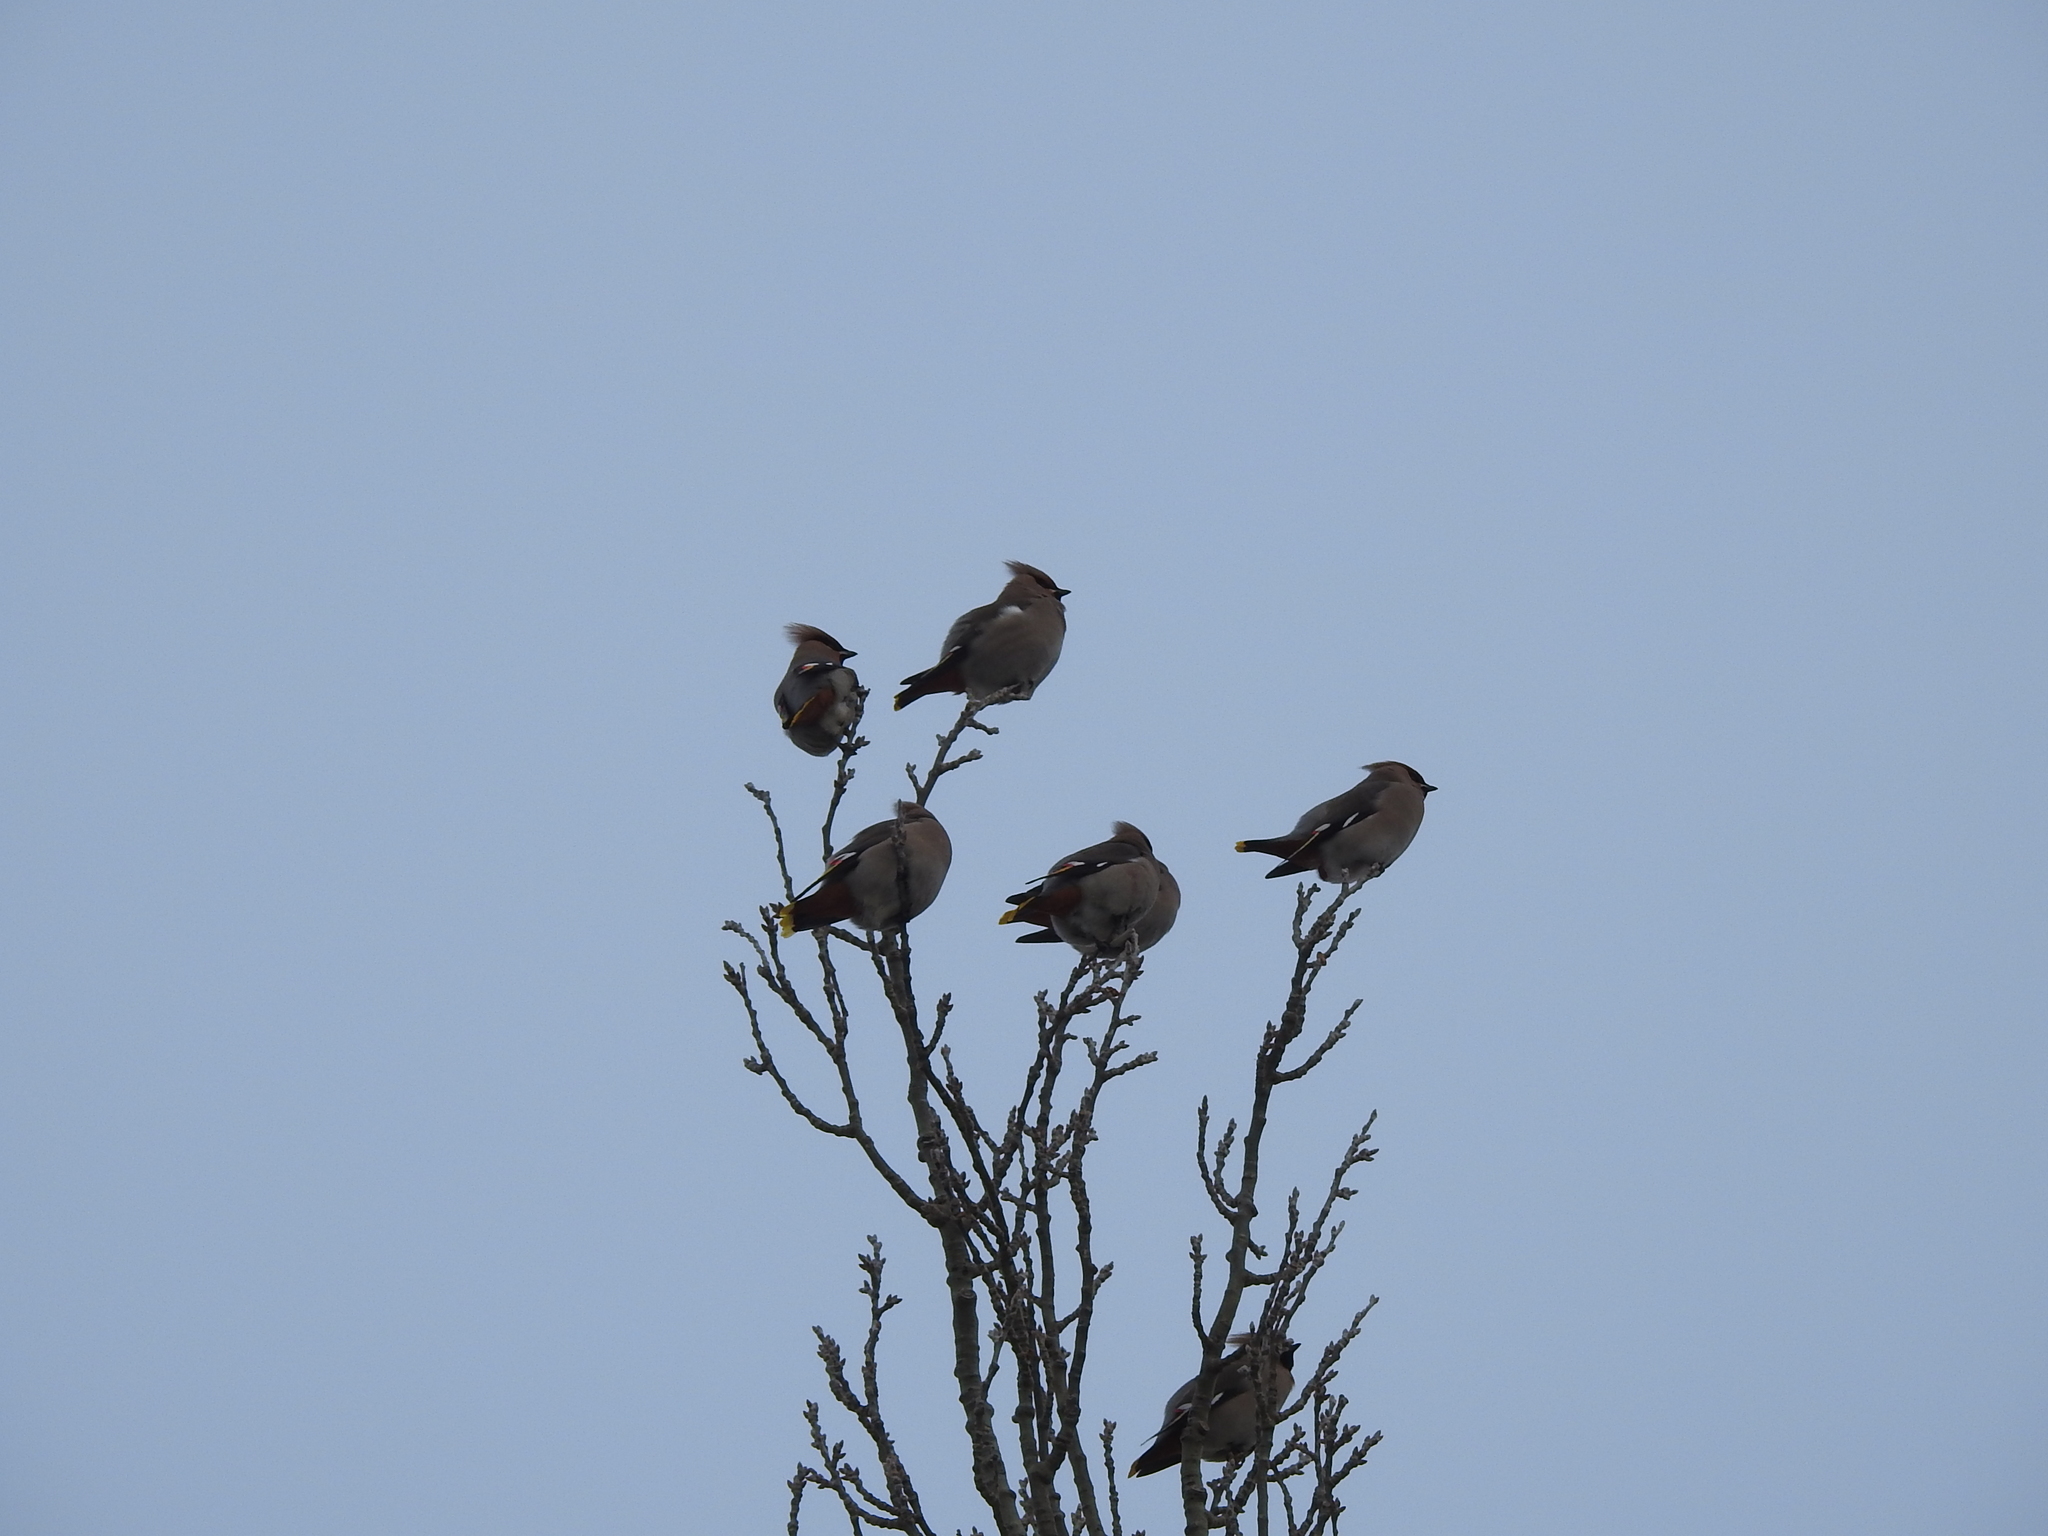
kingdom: Animalia
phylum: Chordata
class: Aves
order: Passeriformes
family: Bombycillidae
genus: Bombycilla
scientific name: Bombycilla garrulus
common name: Bohemian waxwing
